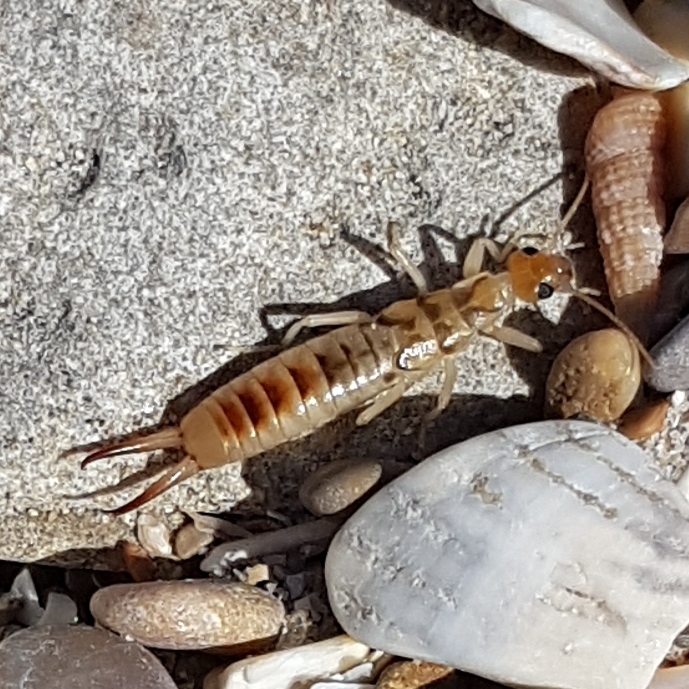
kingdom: Animalia
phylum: Arthropoda
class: Insecta
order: Dermaptera
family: Labiduridae
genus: Labidura
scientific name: Labidura riparia
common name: Striped earwig
